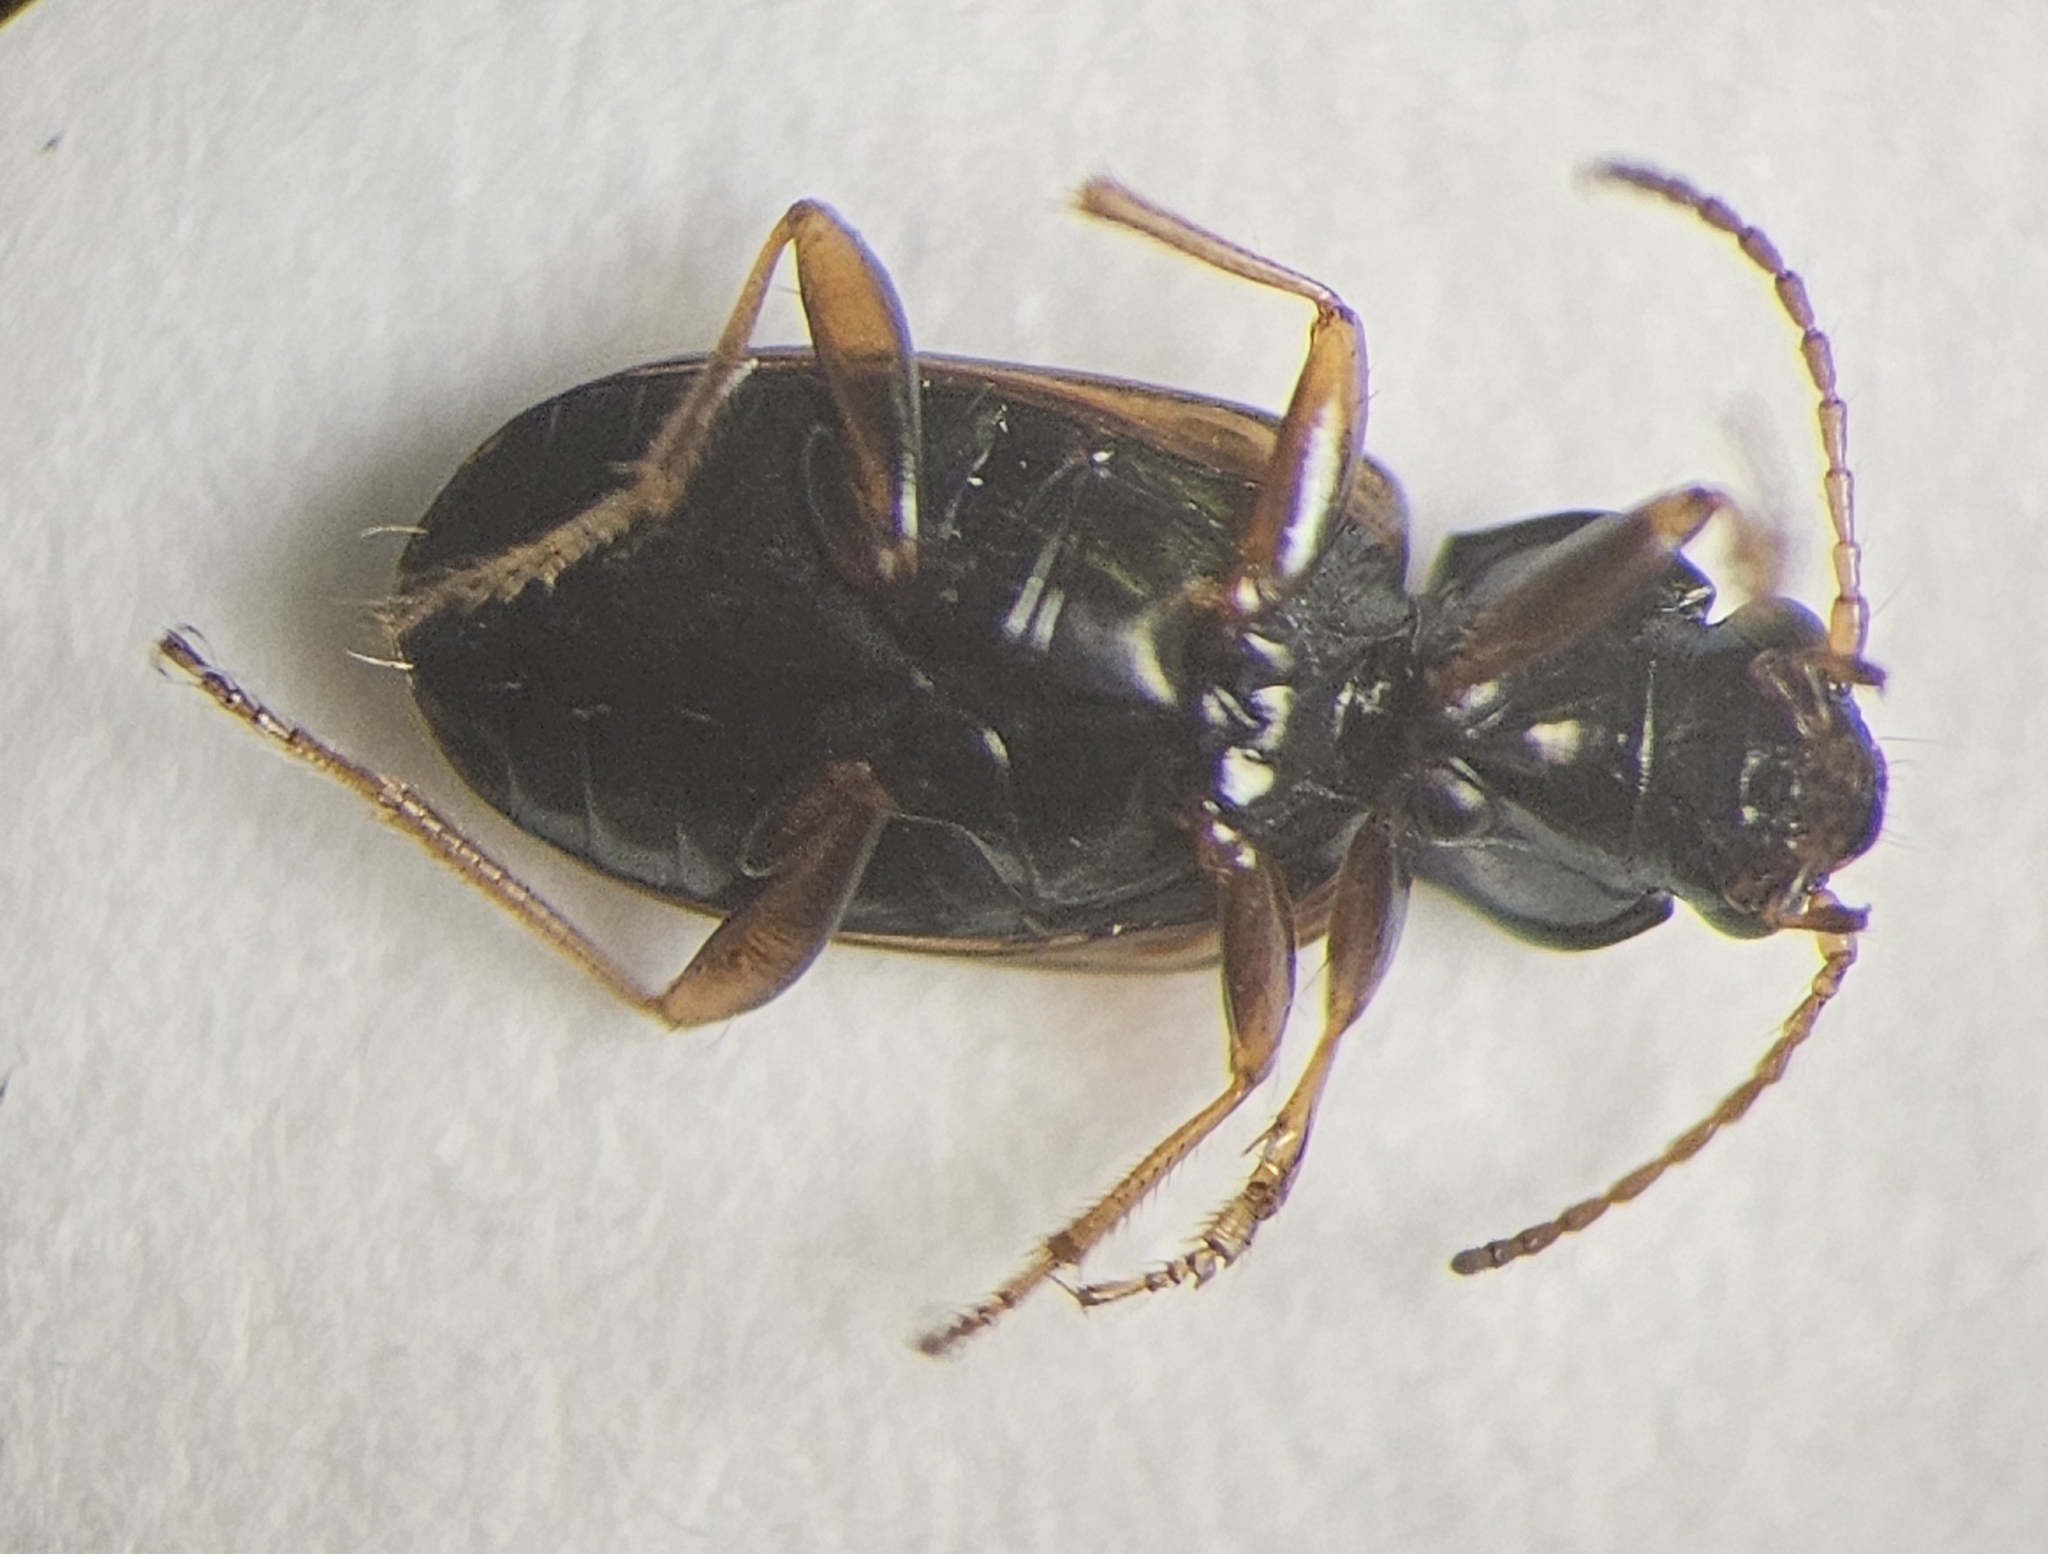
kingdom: Animalia
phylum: Arthropoda
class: Insecta
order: Coleoptera
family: Carabidae
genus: Bembidion
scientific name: Bembidion flohri
